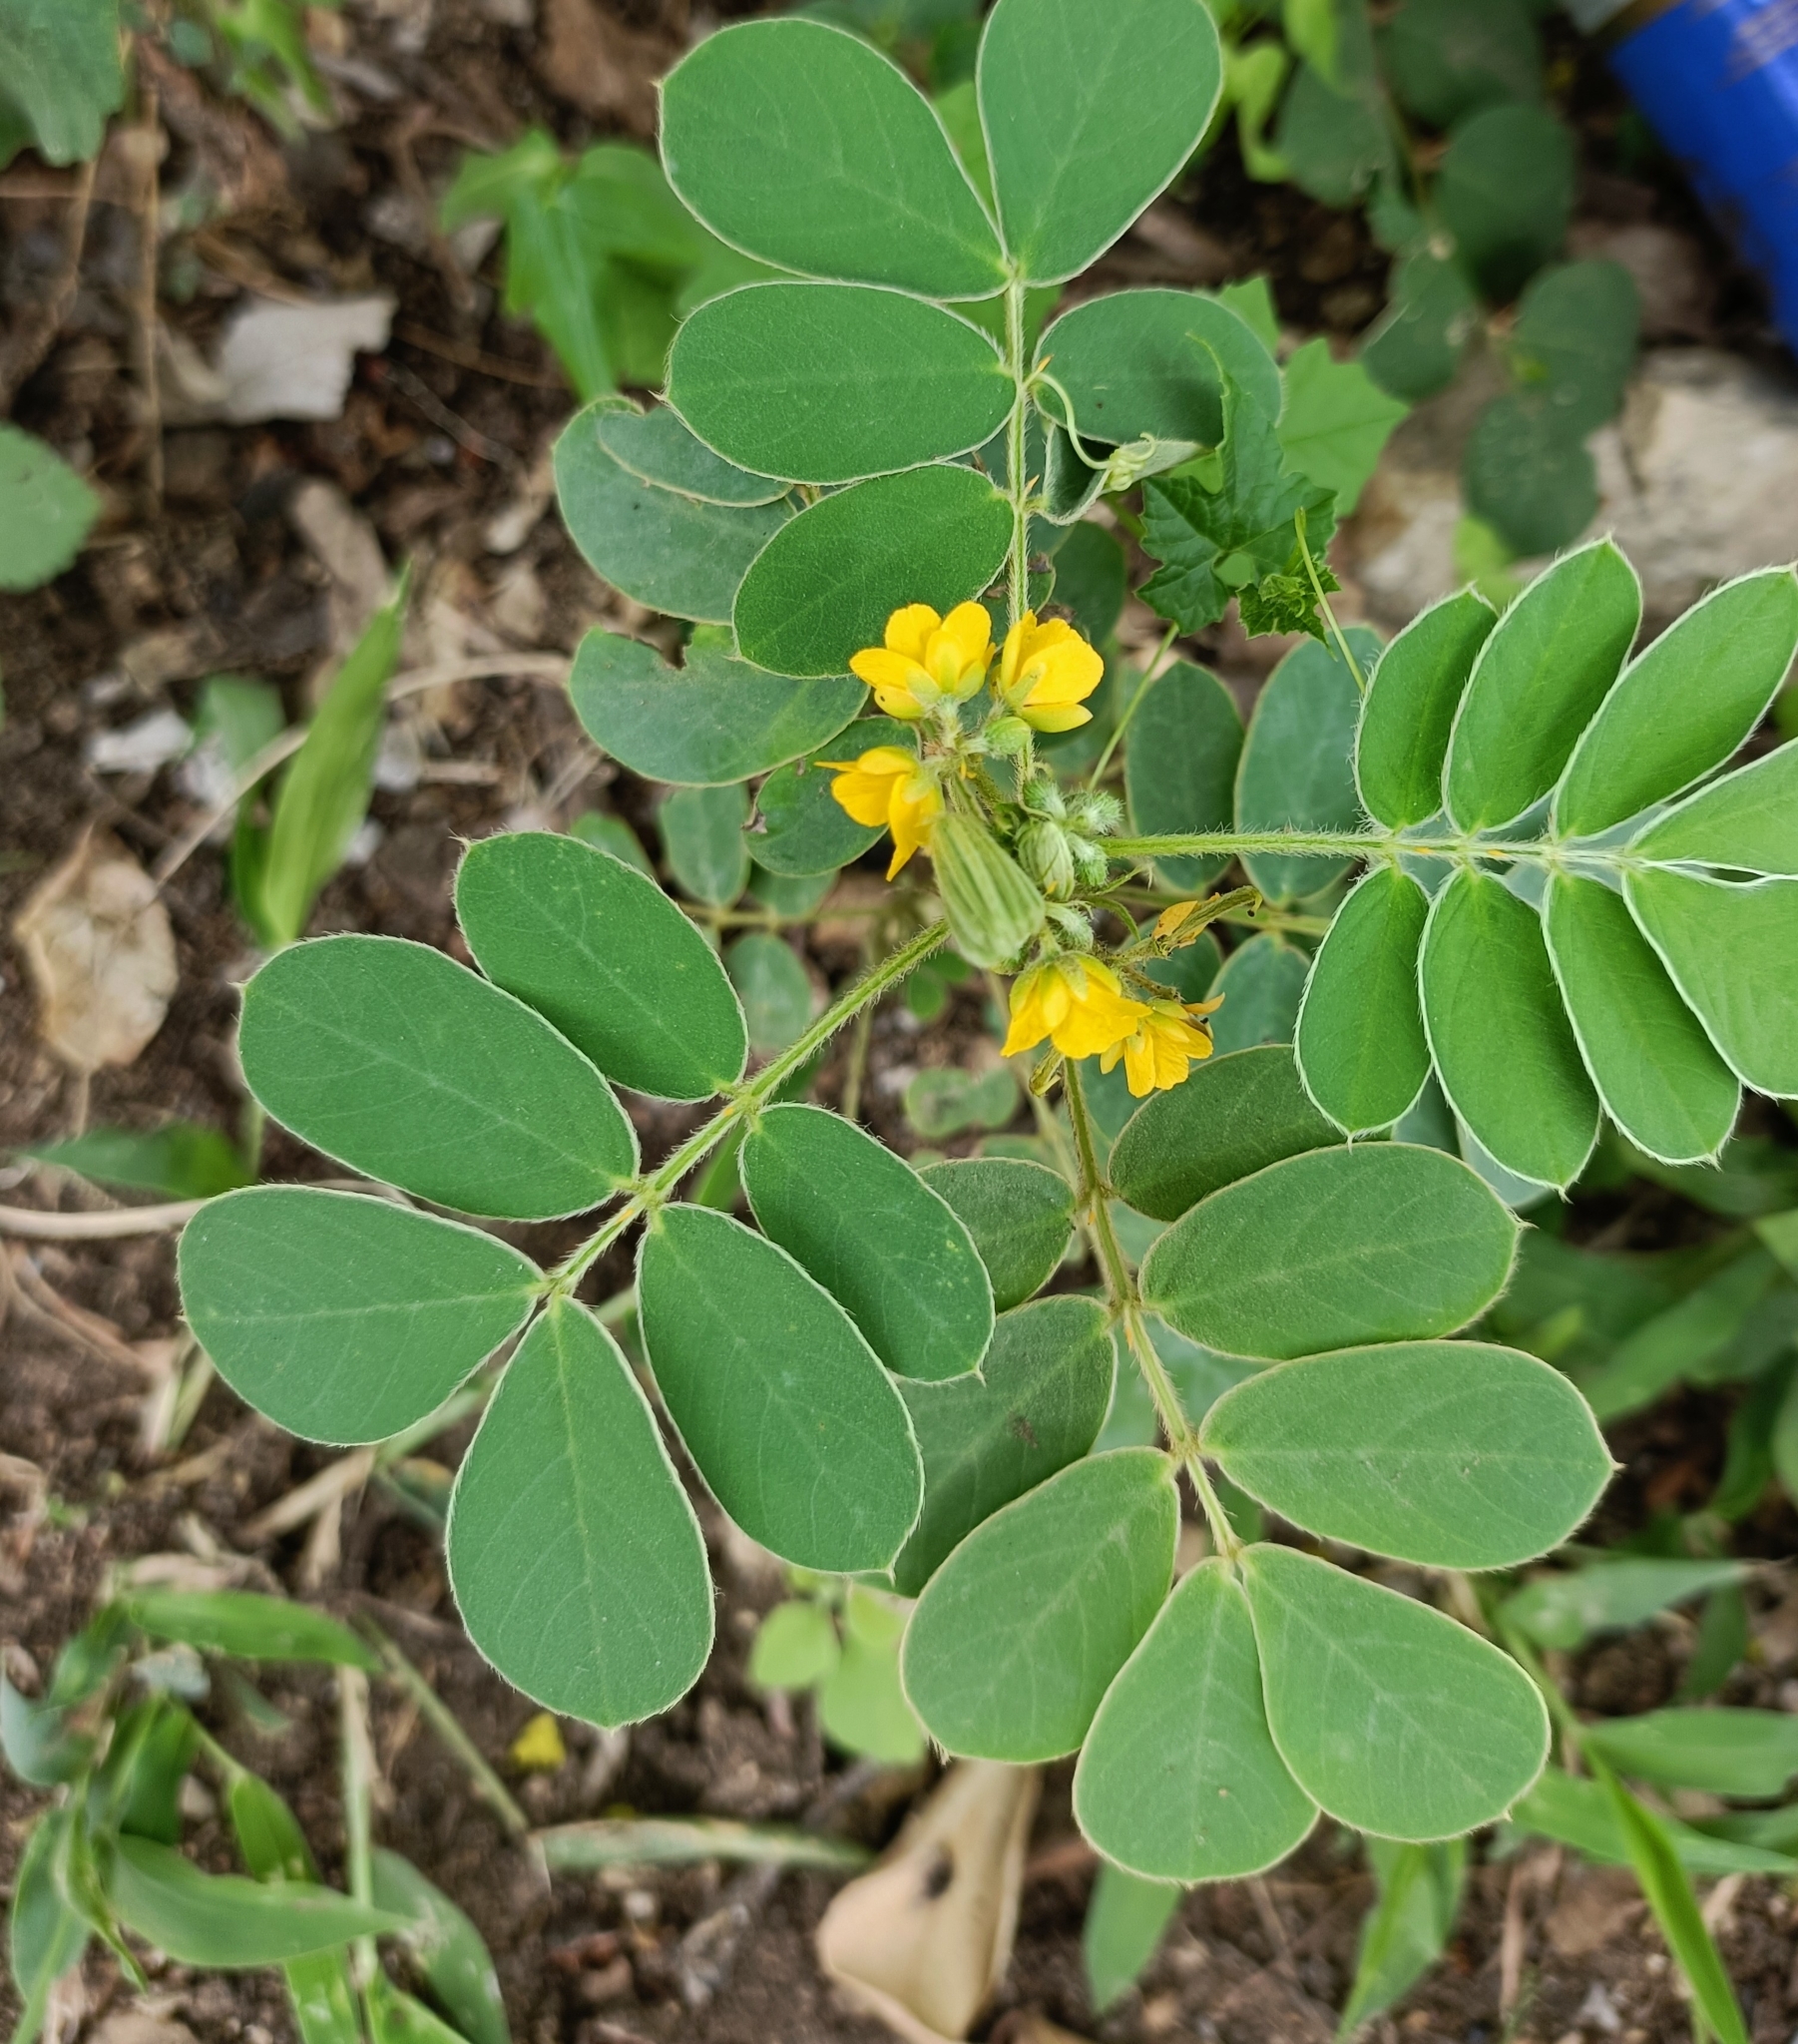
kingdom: Plantae
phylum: Tracheophyta
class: Magnoliopsida
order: Fabales
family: Fabaceae
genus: Senna
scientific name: Senna uniflora
